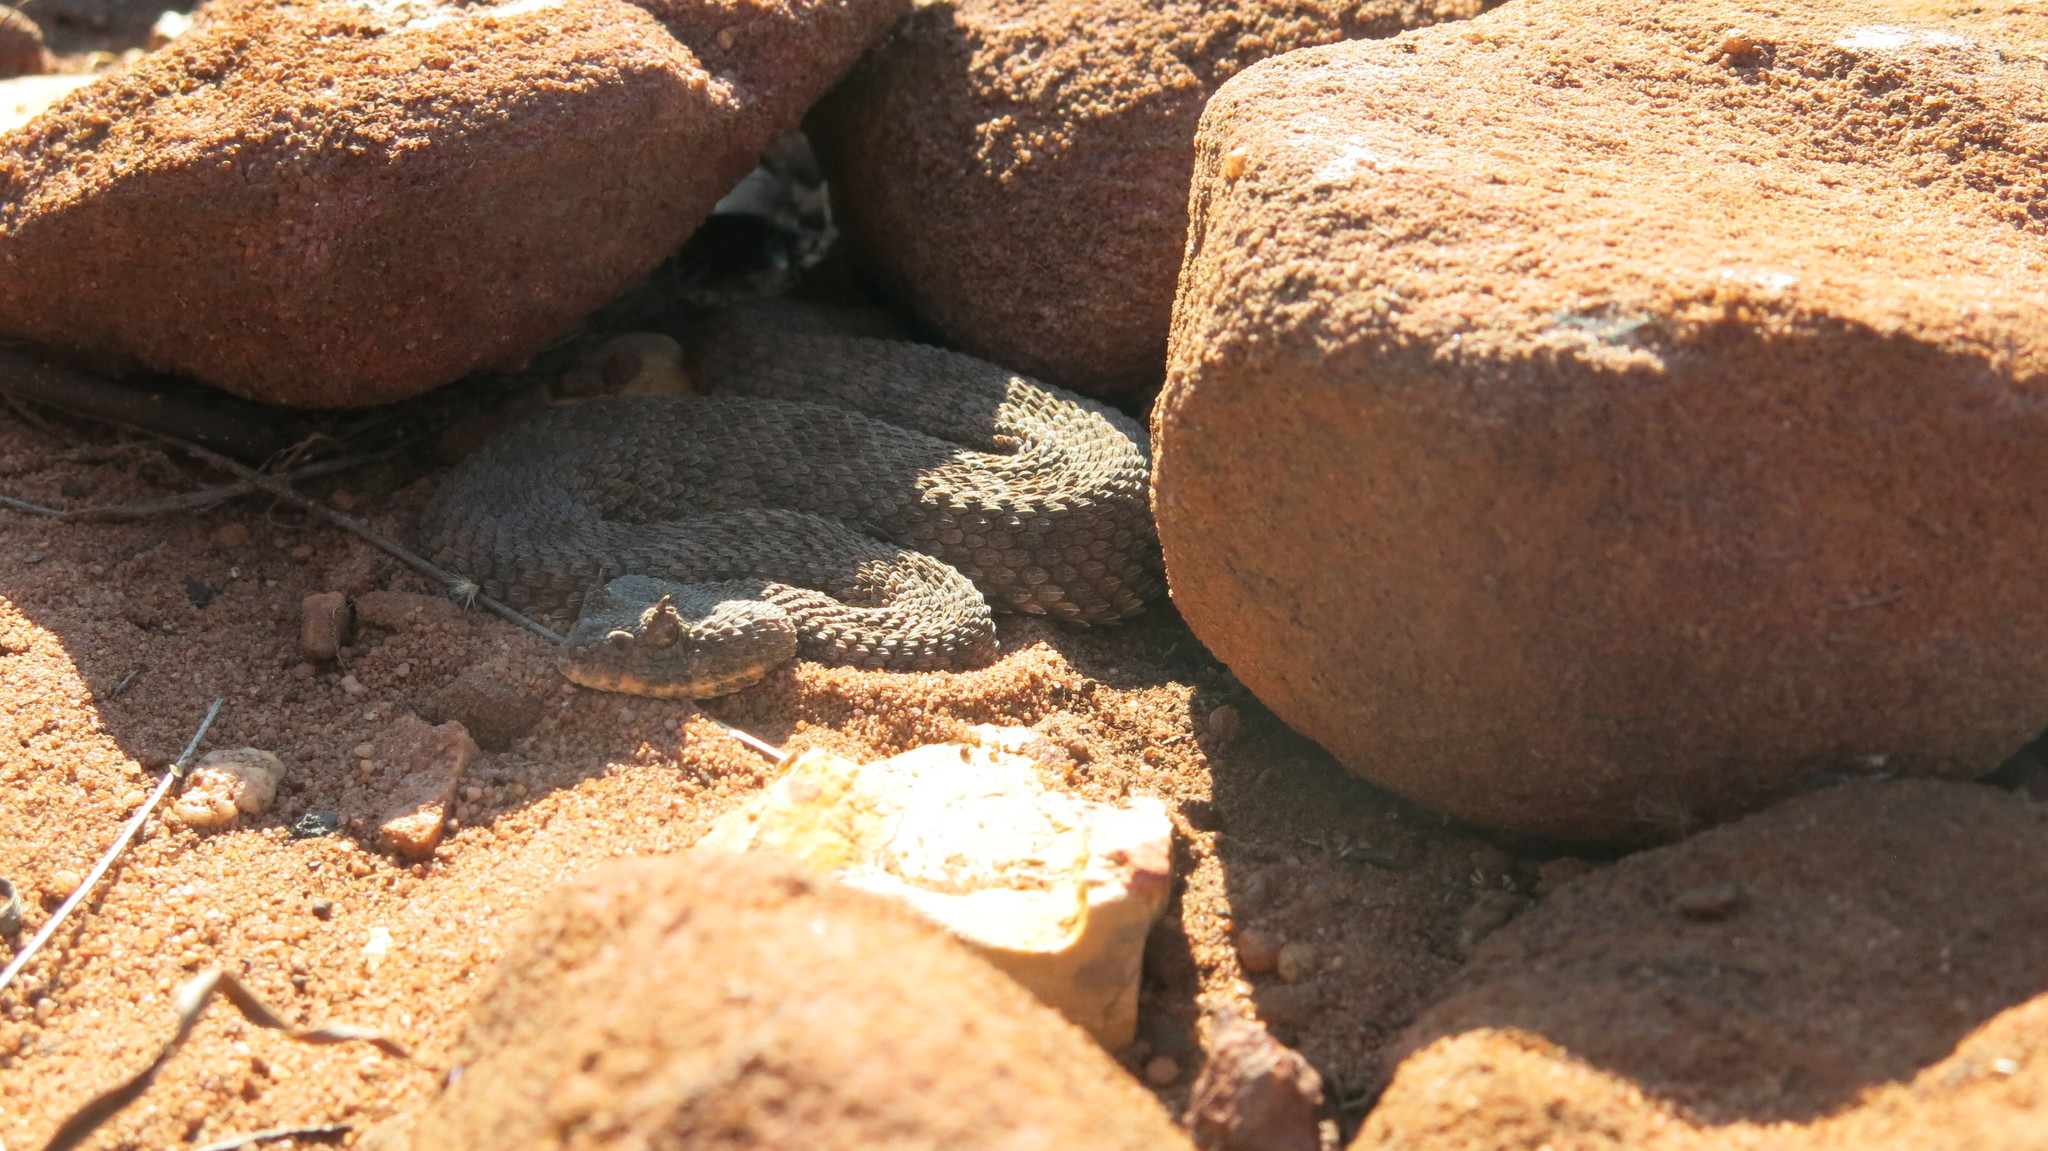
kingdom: Animalia
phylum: Chordata
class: Squamata
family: Viperidae
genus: Bitis
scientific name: Bitis caudalis
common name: Horned adder
